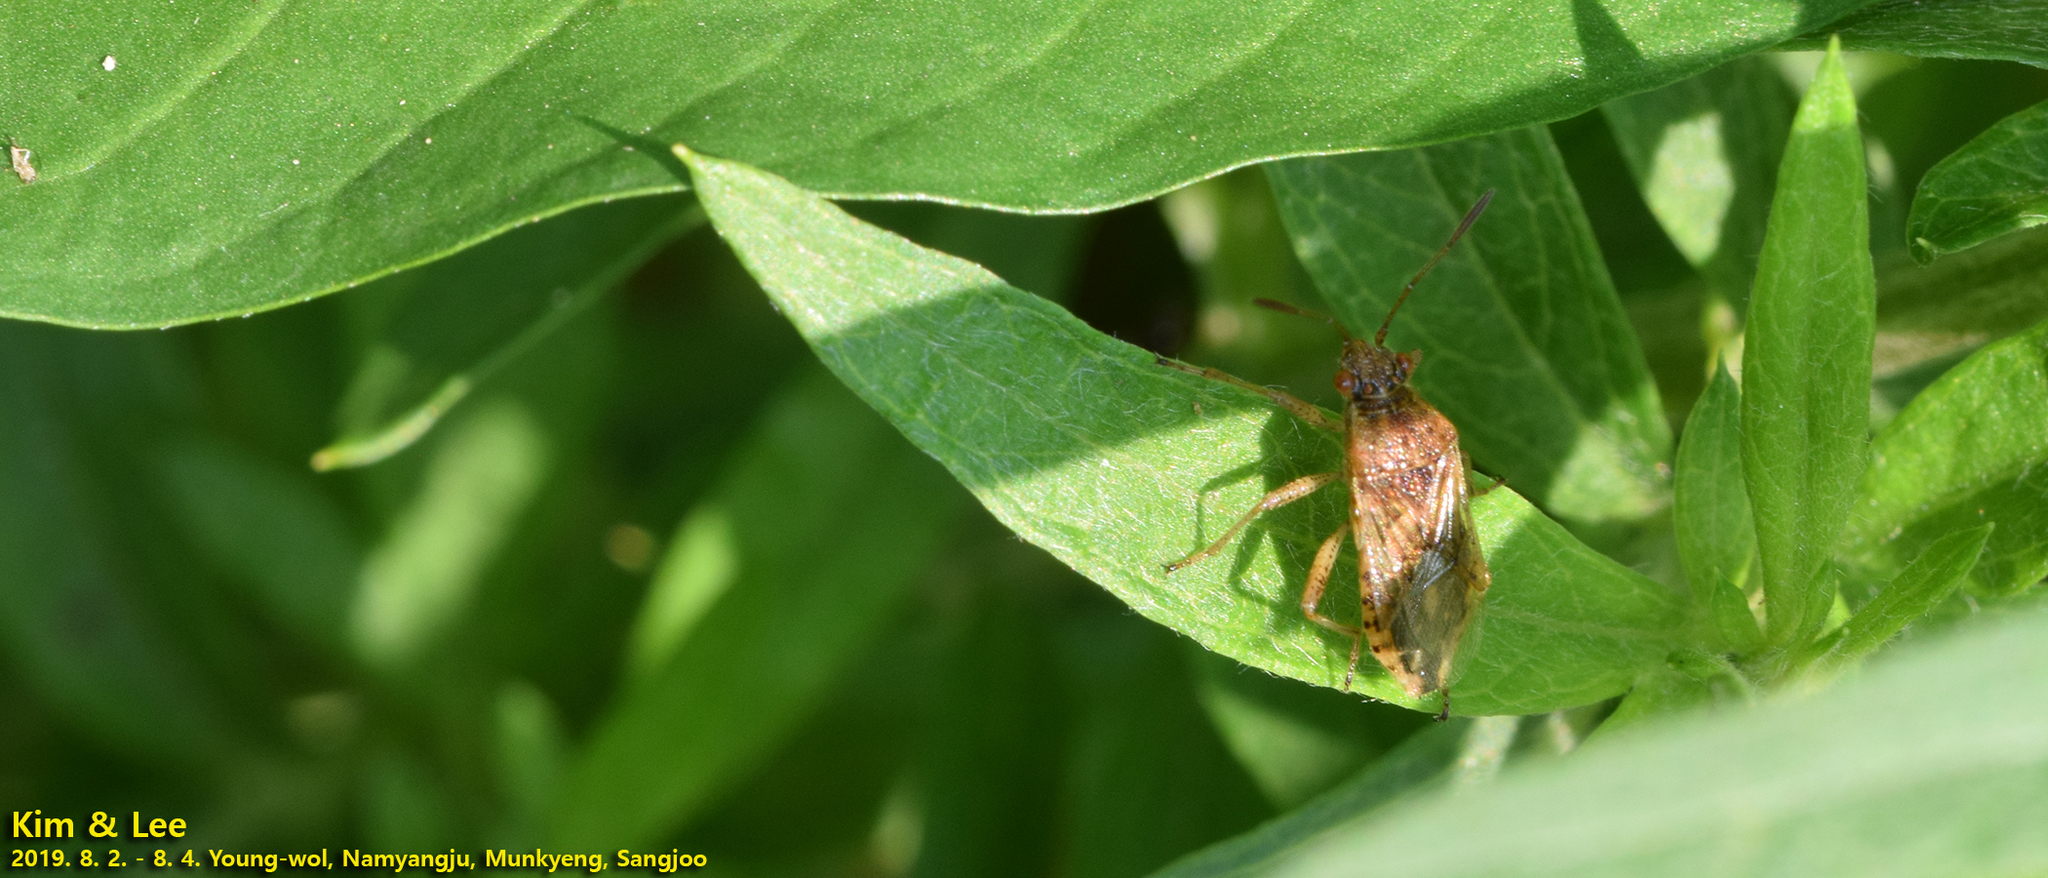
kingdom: Animalia
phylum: Arthropoda
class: Insecta
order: Hemiptera
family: Rhopalidae
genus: Rhopalus
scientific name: Rhopalus parumpunctatus
